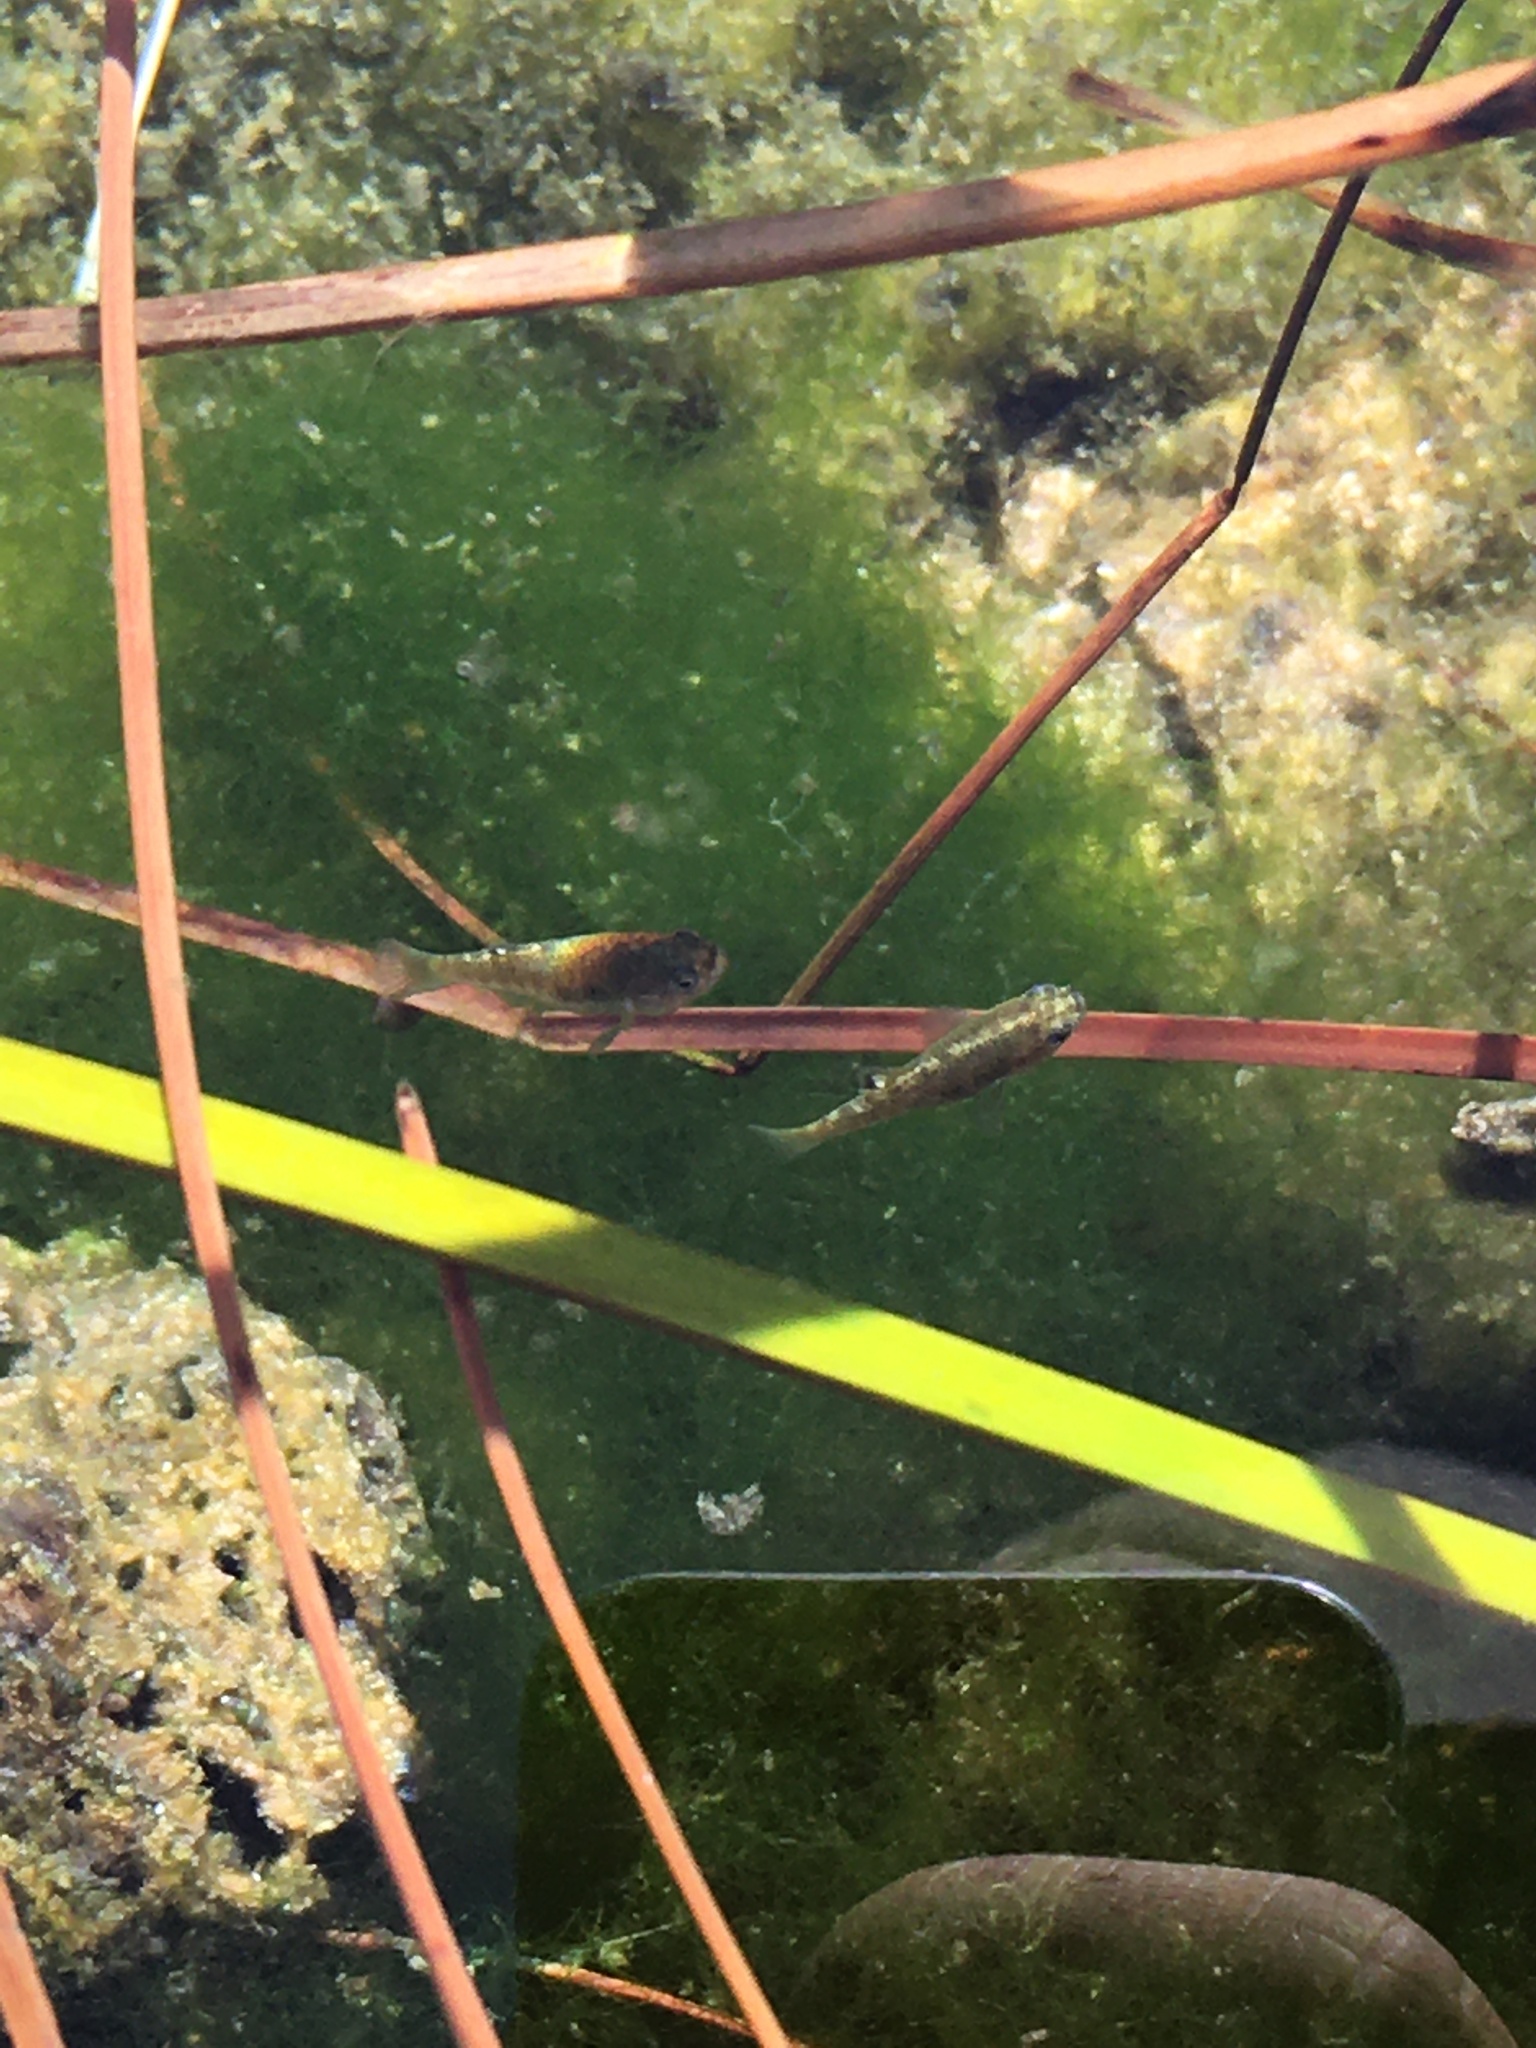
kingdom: Animalia
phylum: Chordata
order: Cyprinodontiformes
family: Cyprinodontidae
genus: Cyprinodon
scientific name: Cyprinodon nevadensis
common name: Amargosa pupfish
